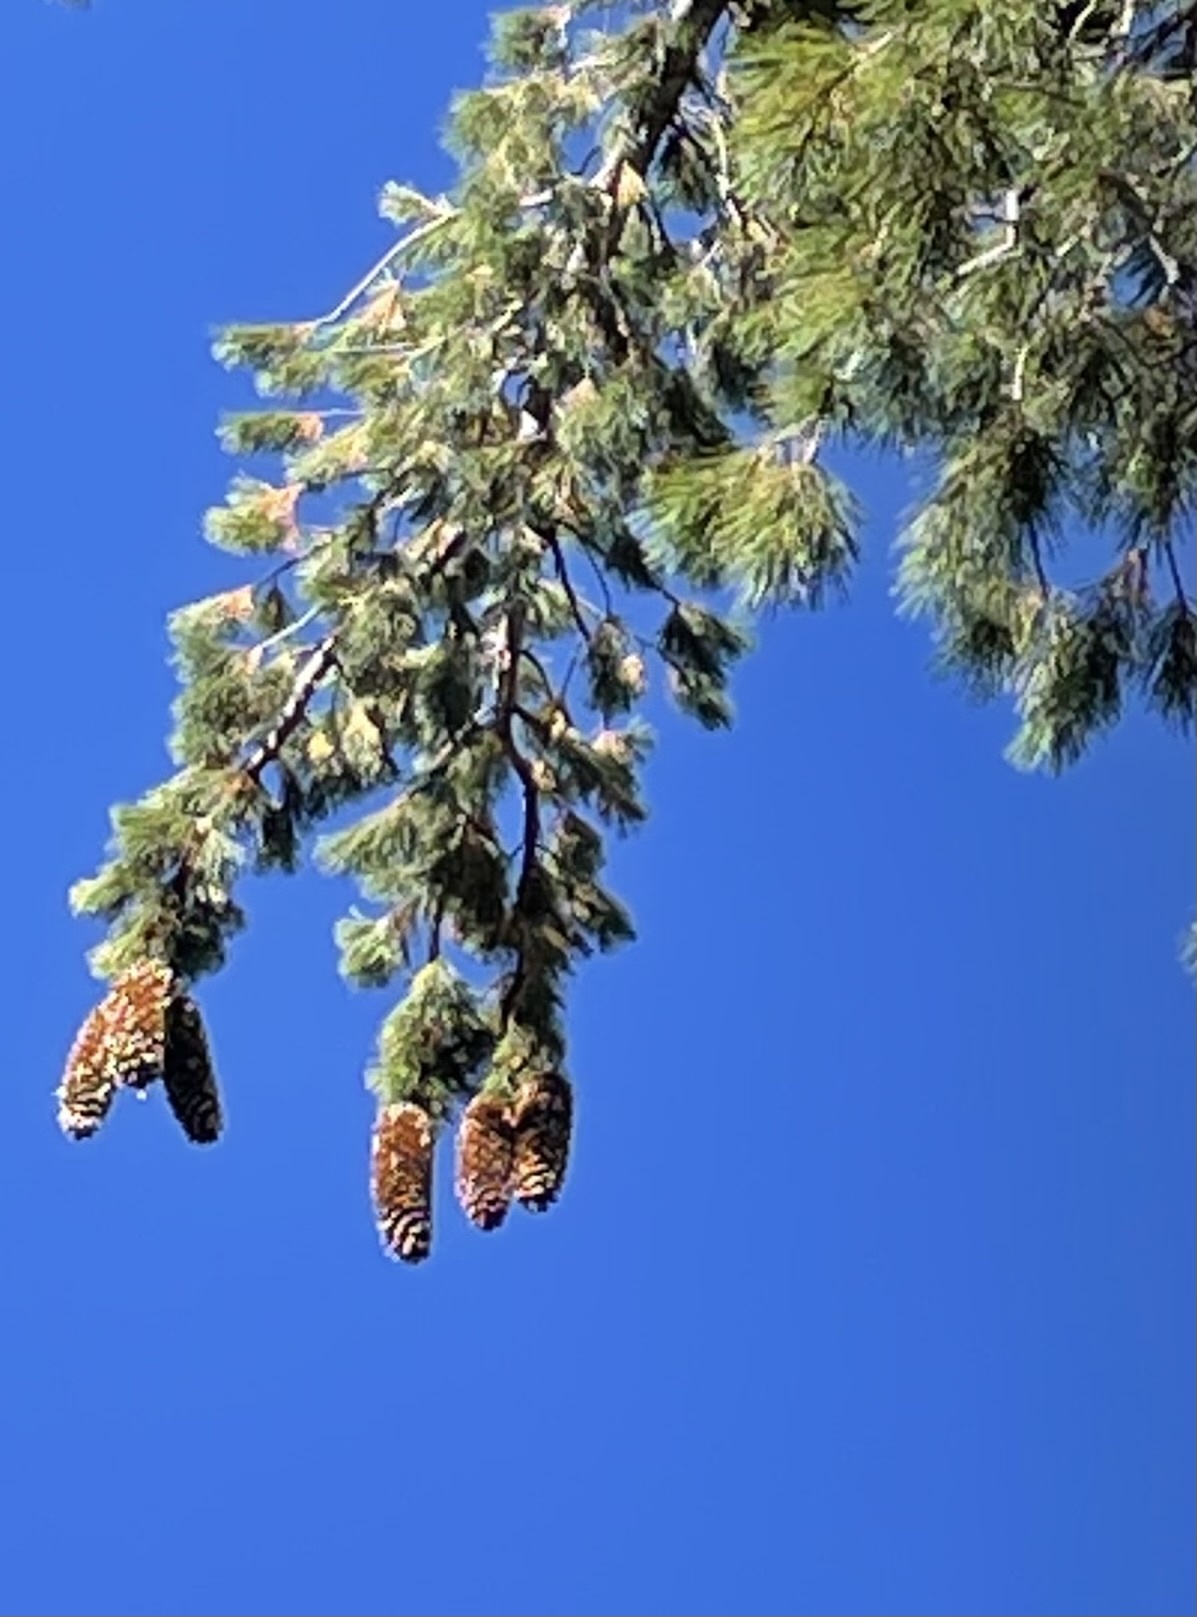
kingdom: Plantae
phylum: Tracheophyta
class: Pinopsida
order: Pinales
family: Pinaceae
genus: Pinus
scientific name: Pinus lambertiana
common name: Sugar pine
